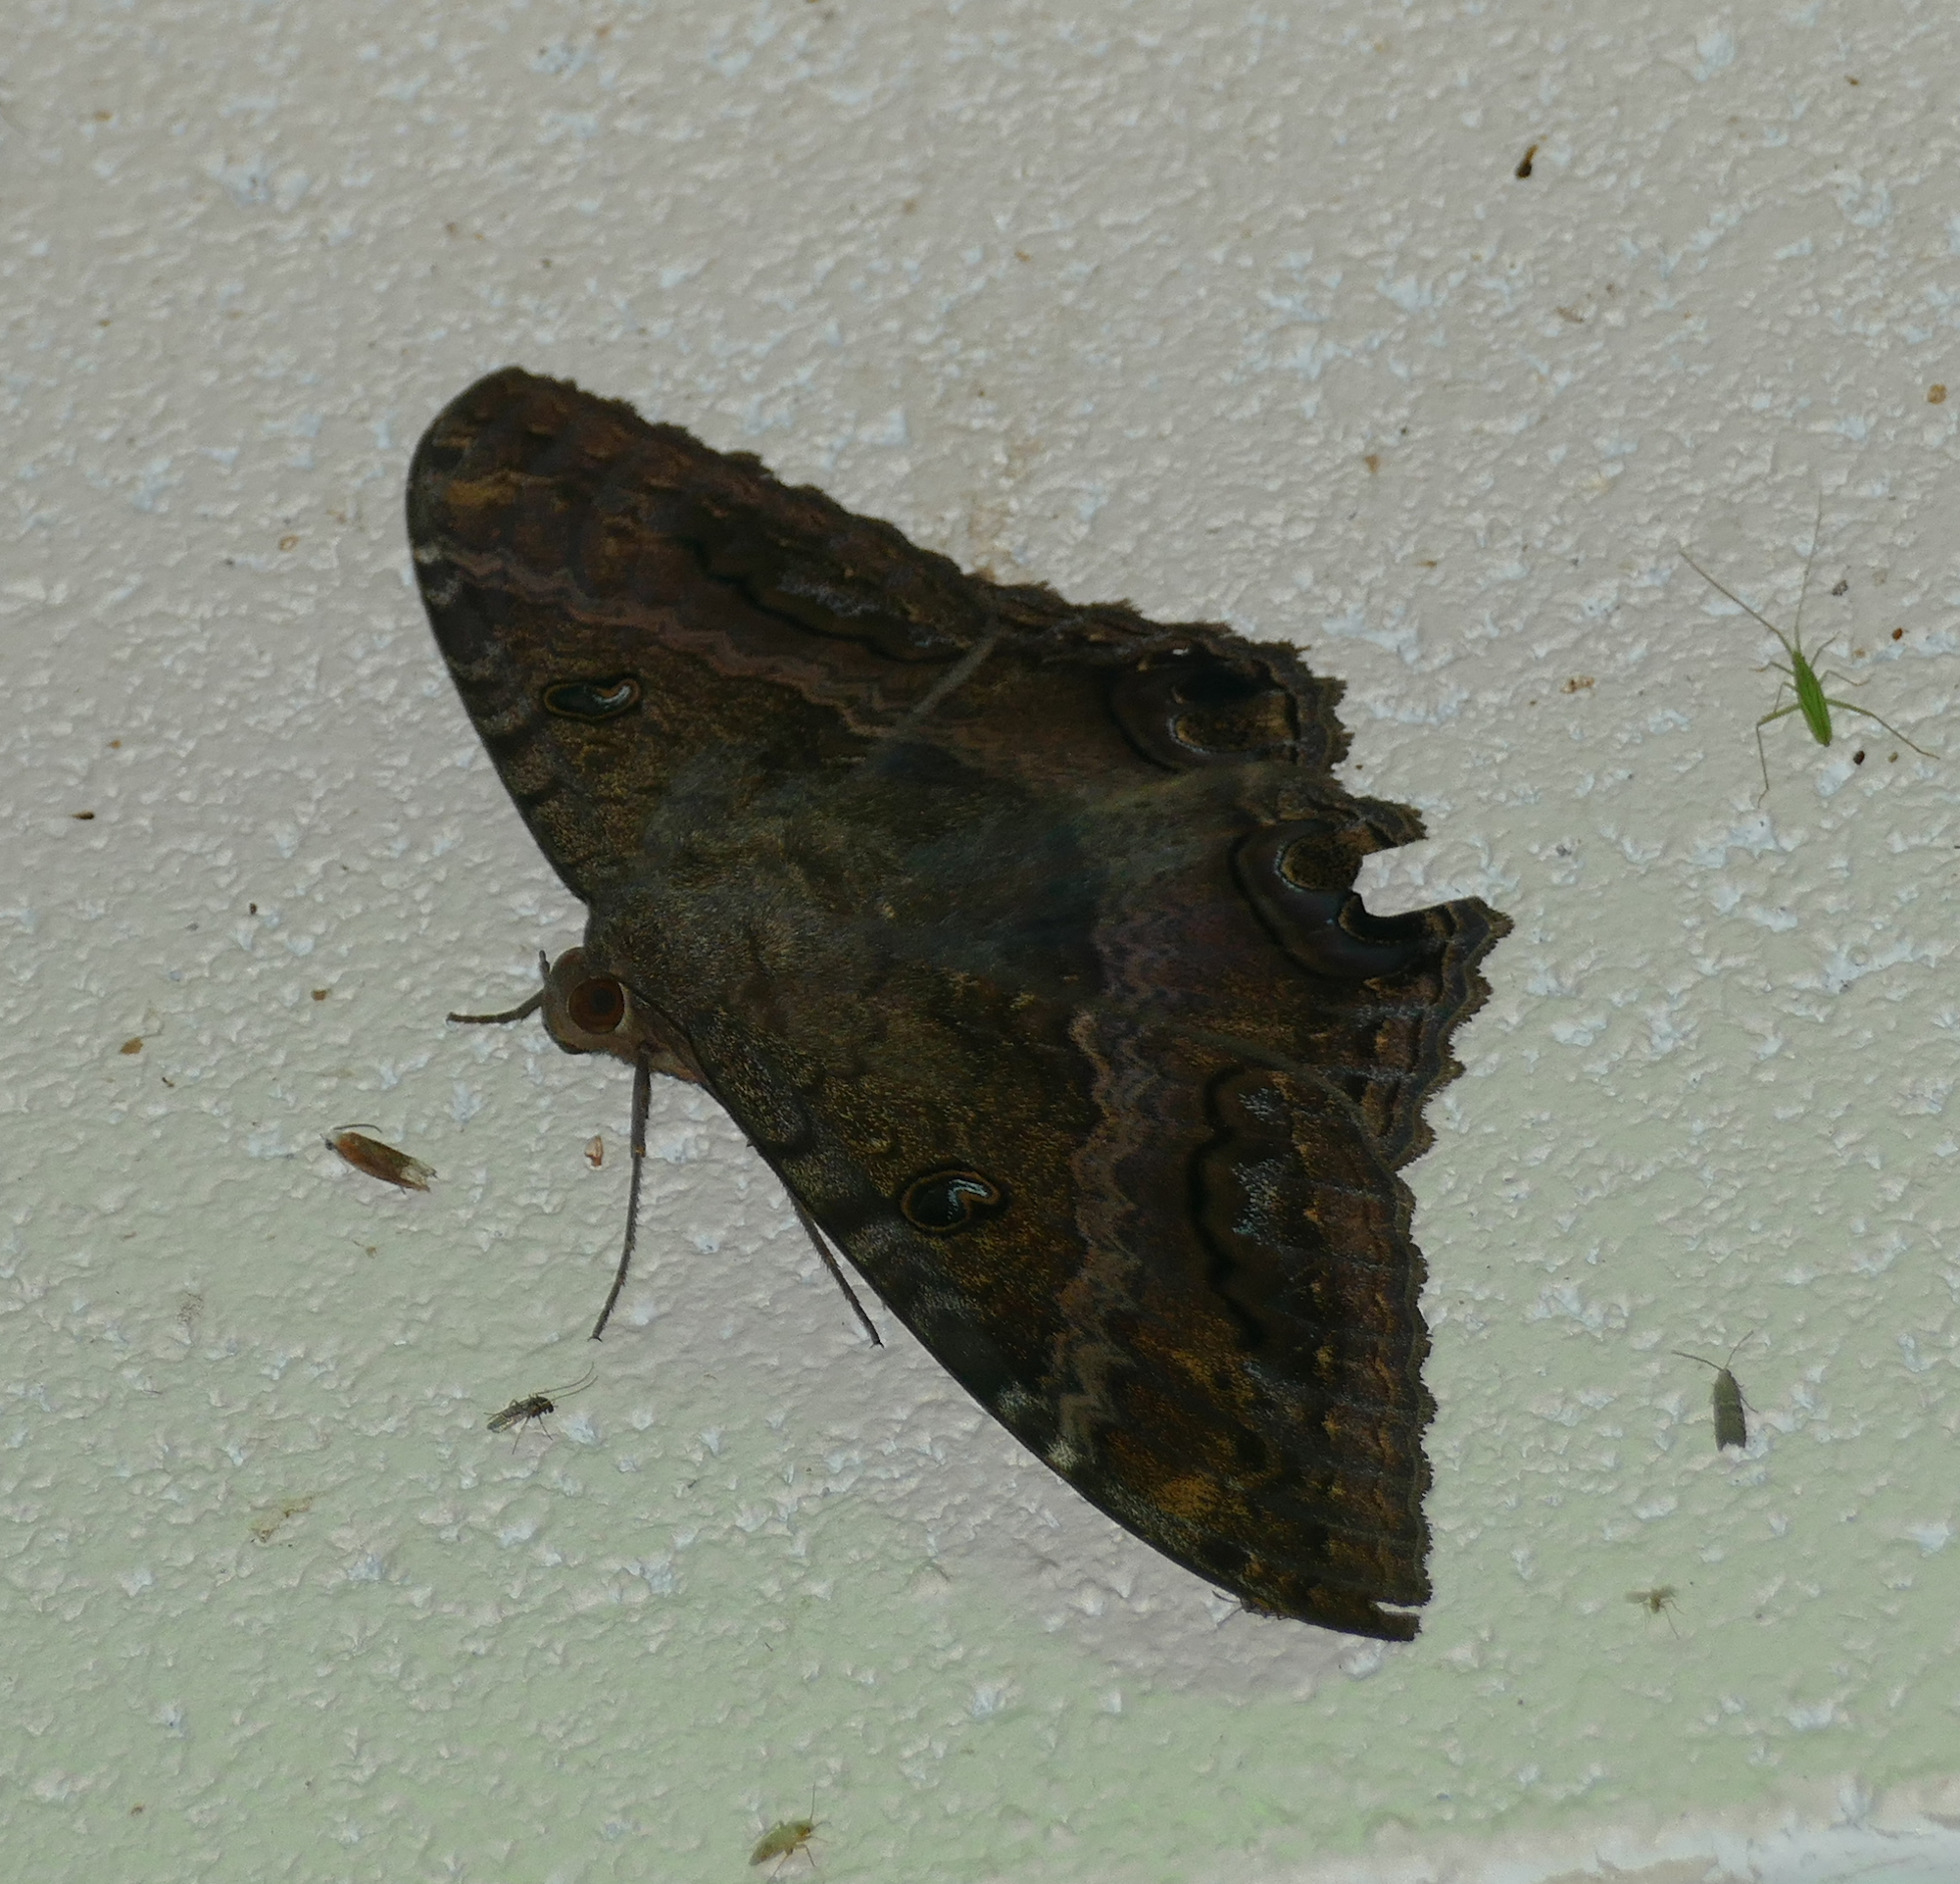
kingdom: Animalia
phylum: Arthropoda
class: Insecta
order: Lepidoptera
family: Erebidae
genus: Ascalapha
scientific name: Ascalapha odorata
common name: Black witch
